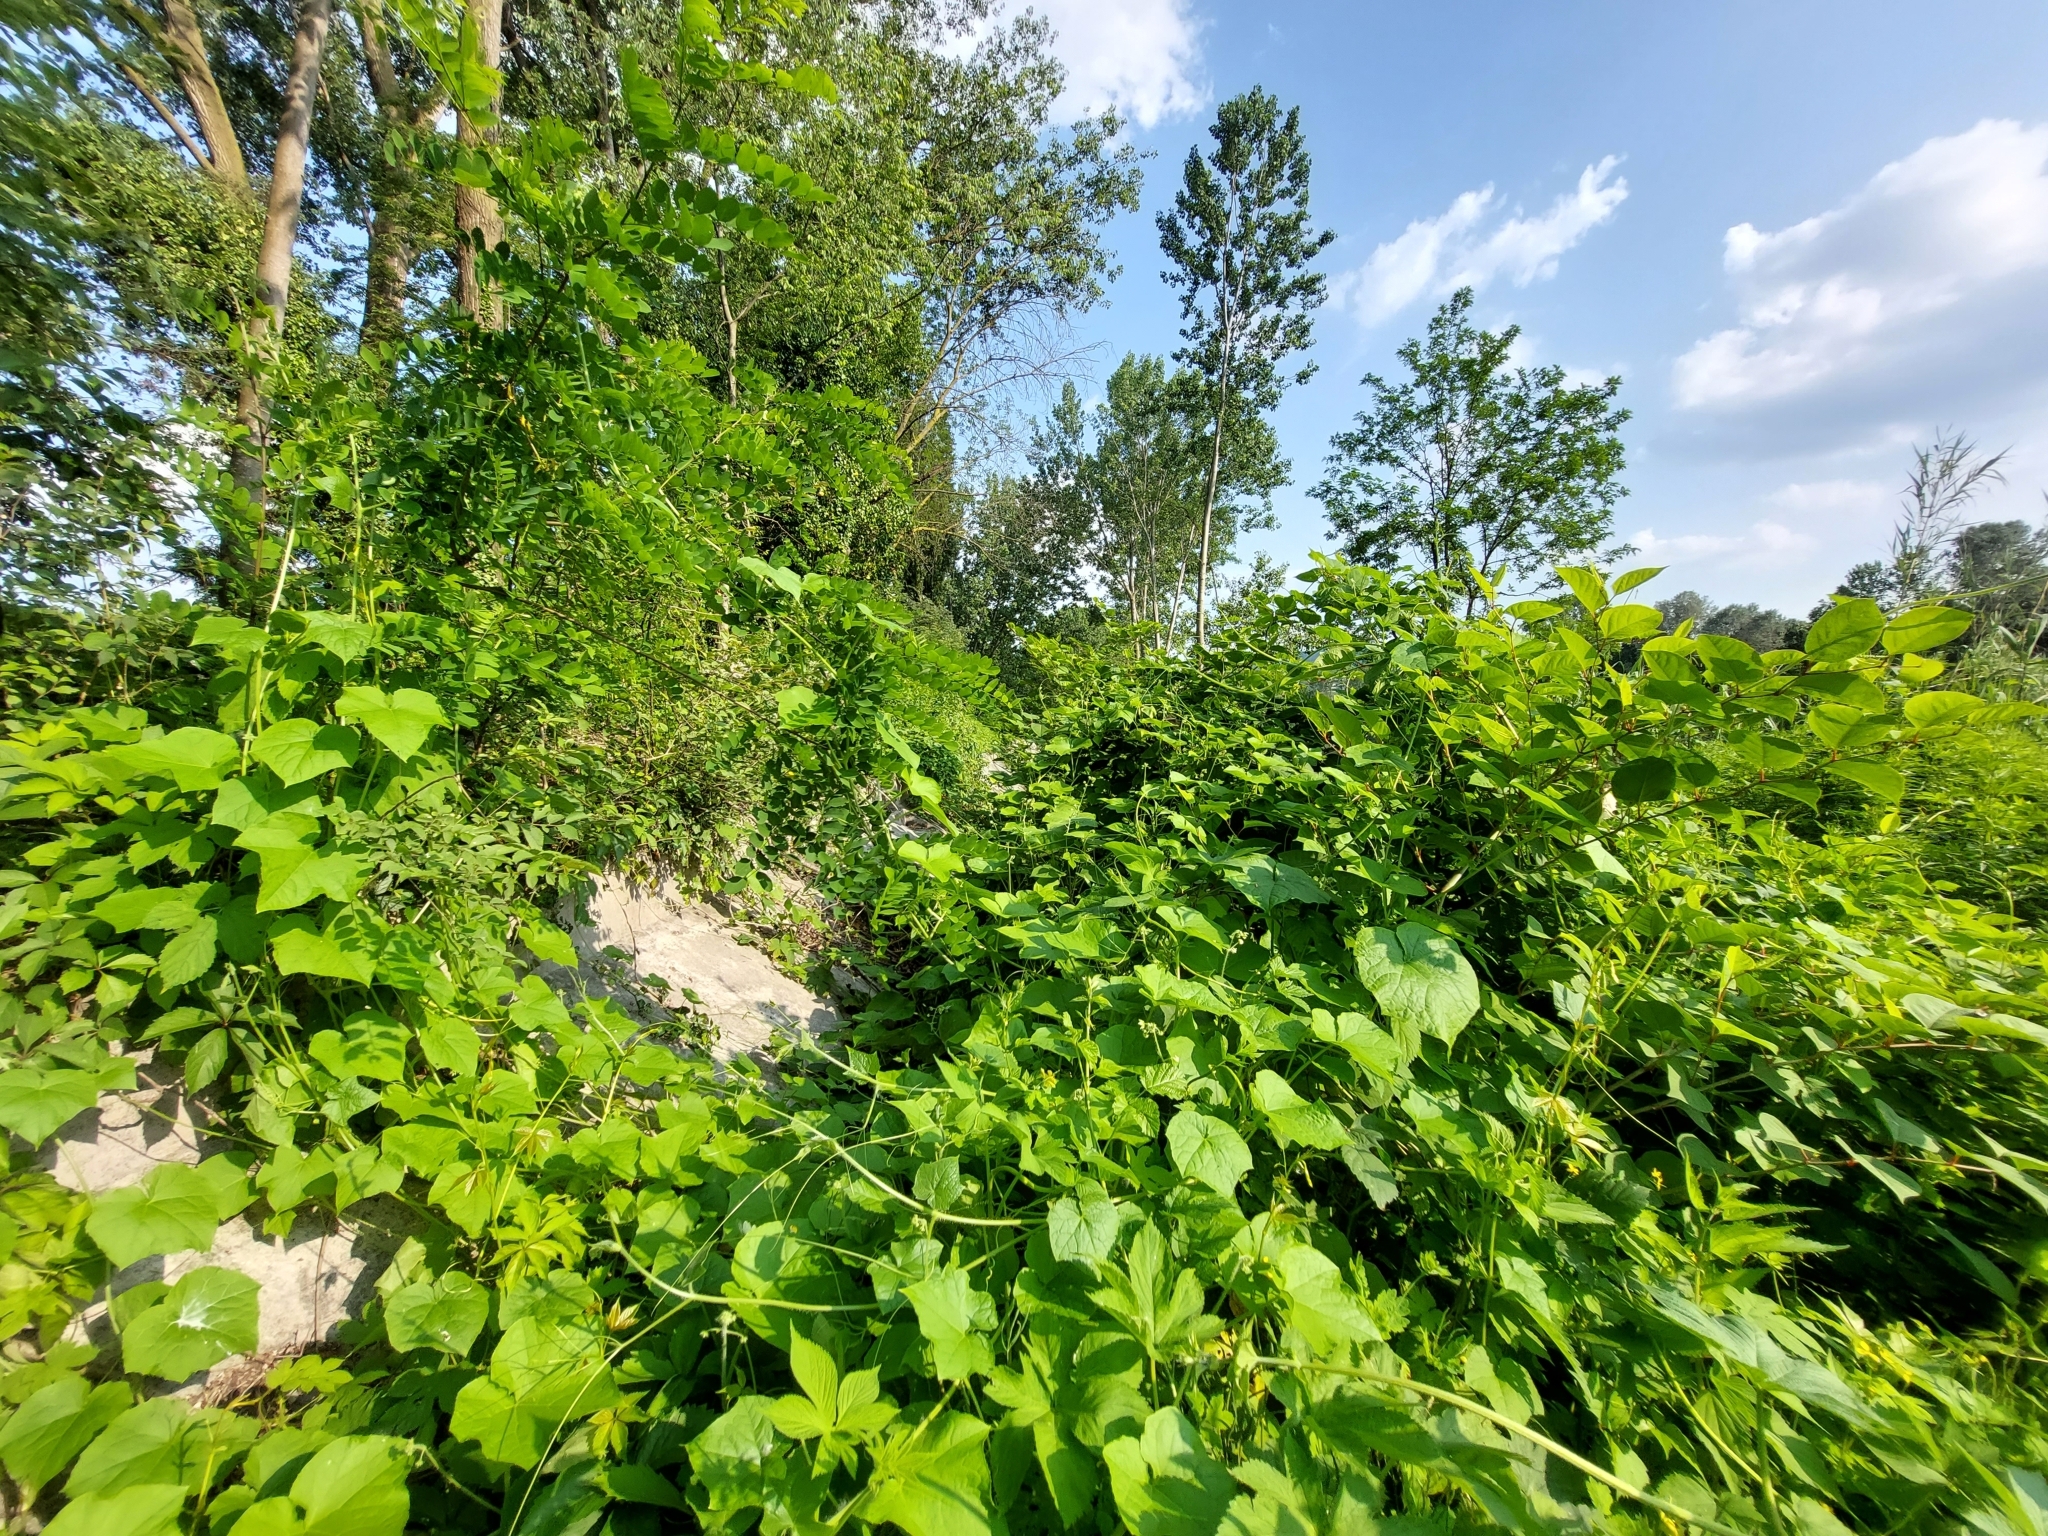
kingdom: Plantae
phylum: Tracheophyta
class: Magnoliopsida
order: Cucurbitales
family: Cucurbitaceae
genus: Sicyos
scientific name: Sicyos angulatus
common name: Angled burr cucumber
